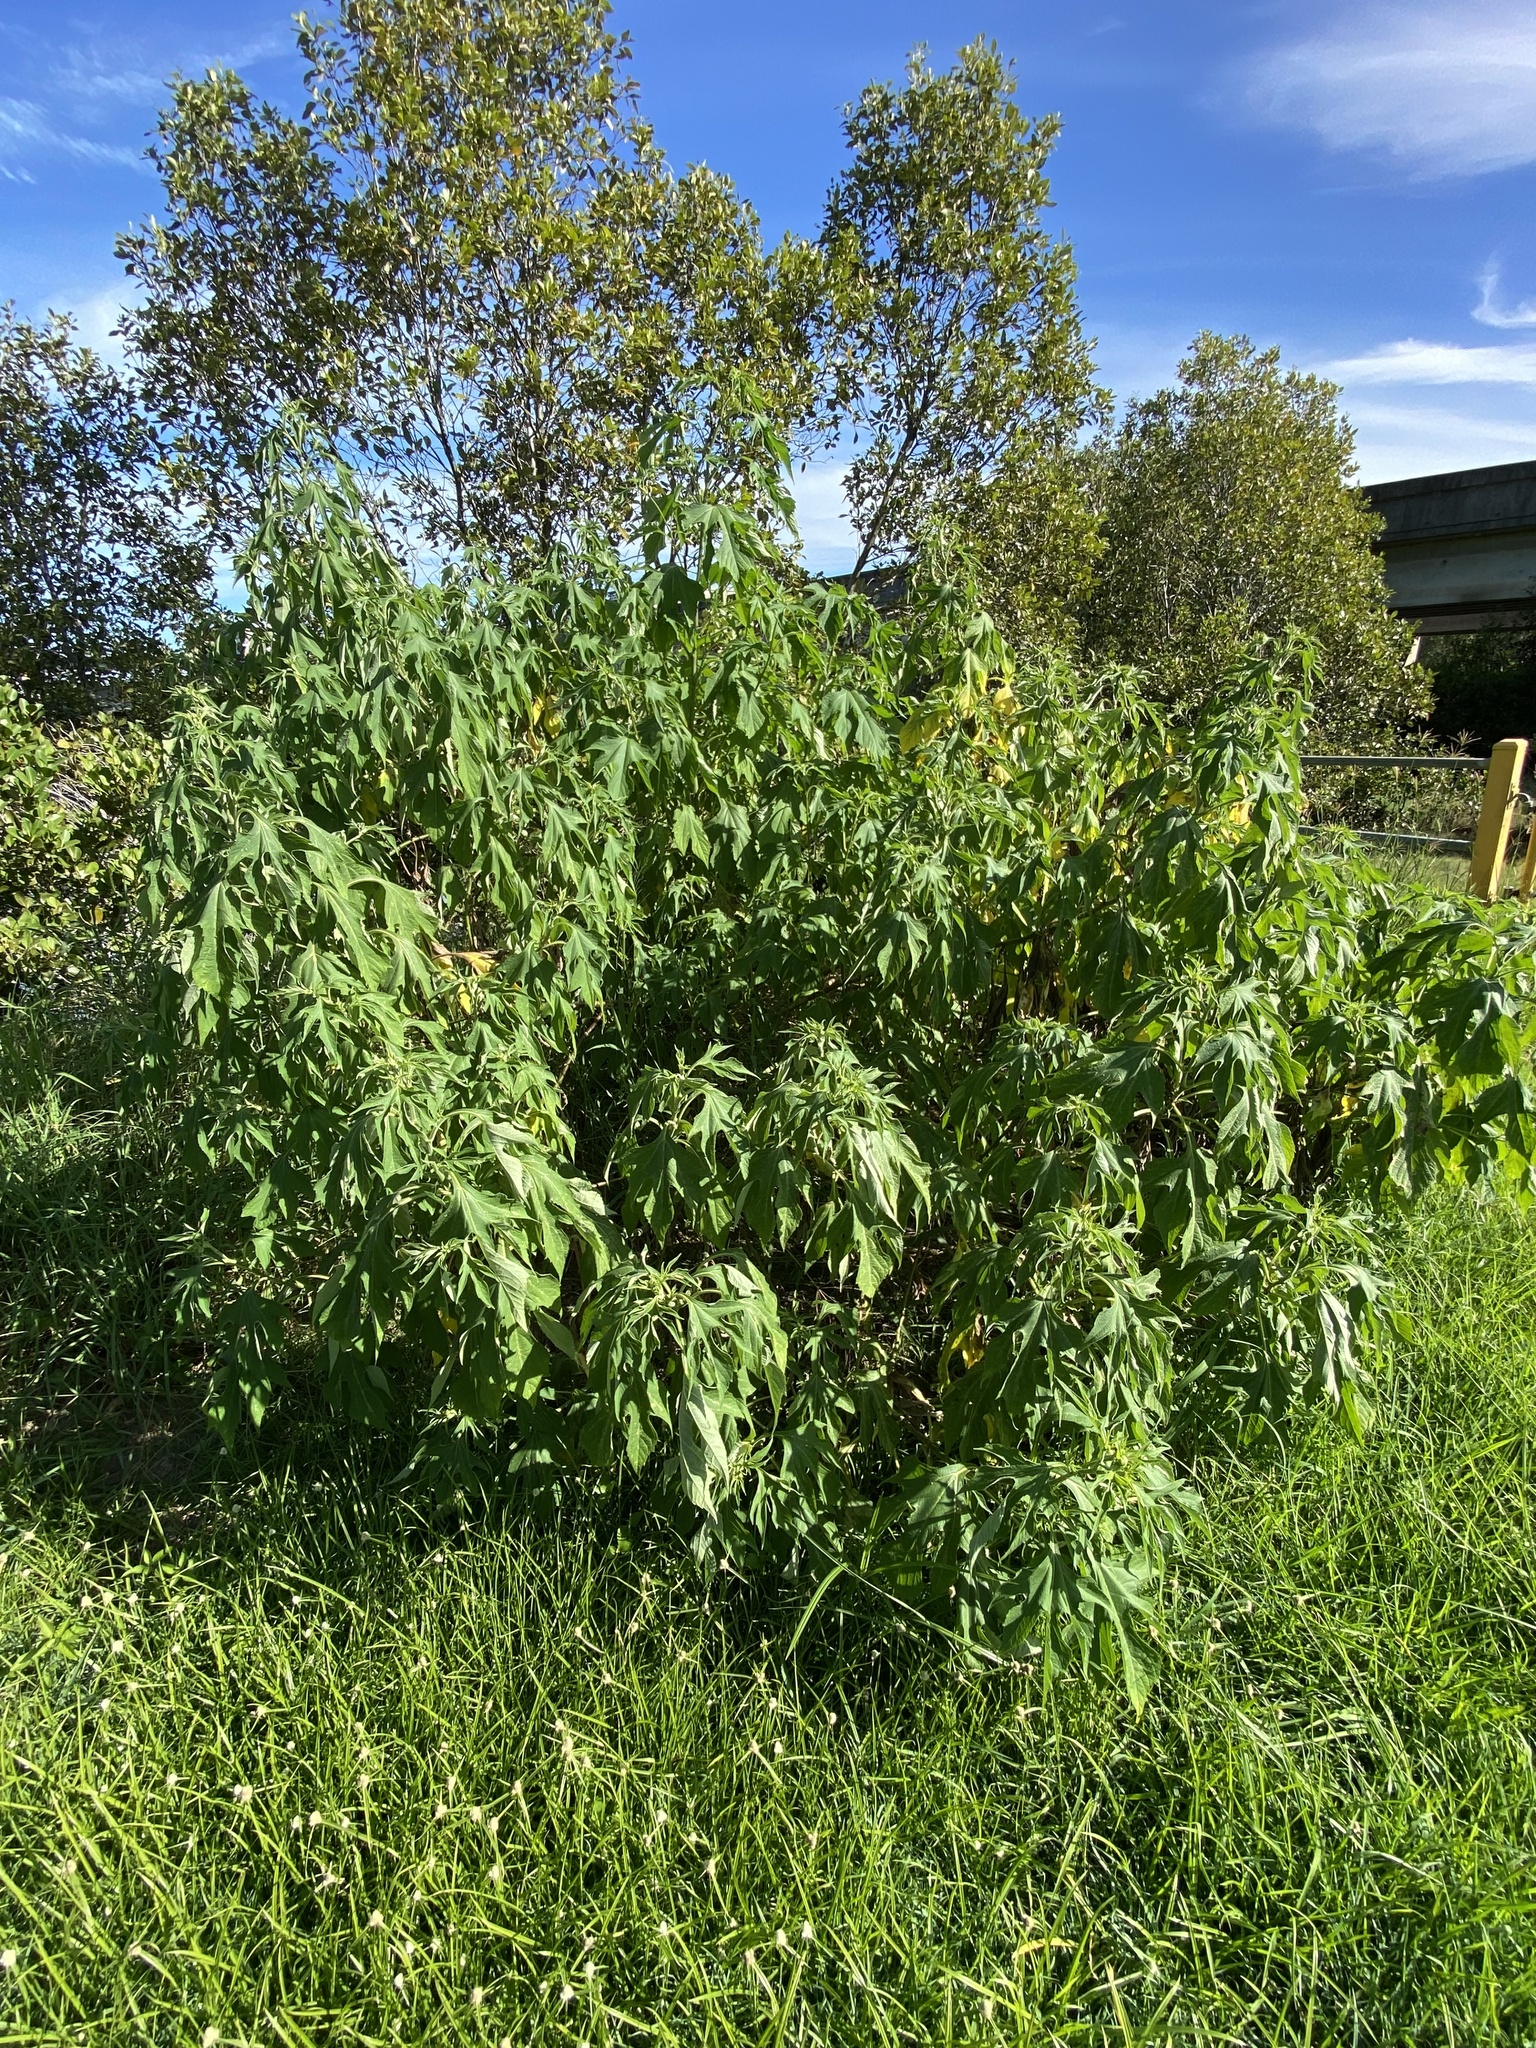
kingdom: Plantae
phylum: Tracheophyta
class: Magnoliopsida
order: Asterales
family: Asteraceae
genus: Tithonia
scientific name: Tithonia diversifolia
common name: Tree marigold
